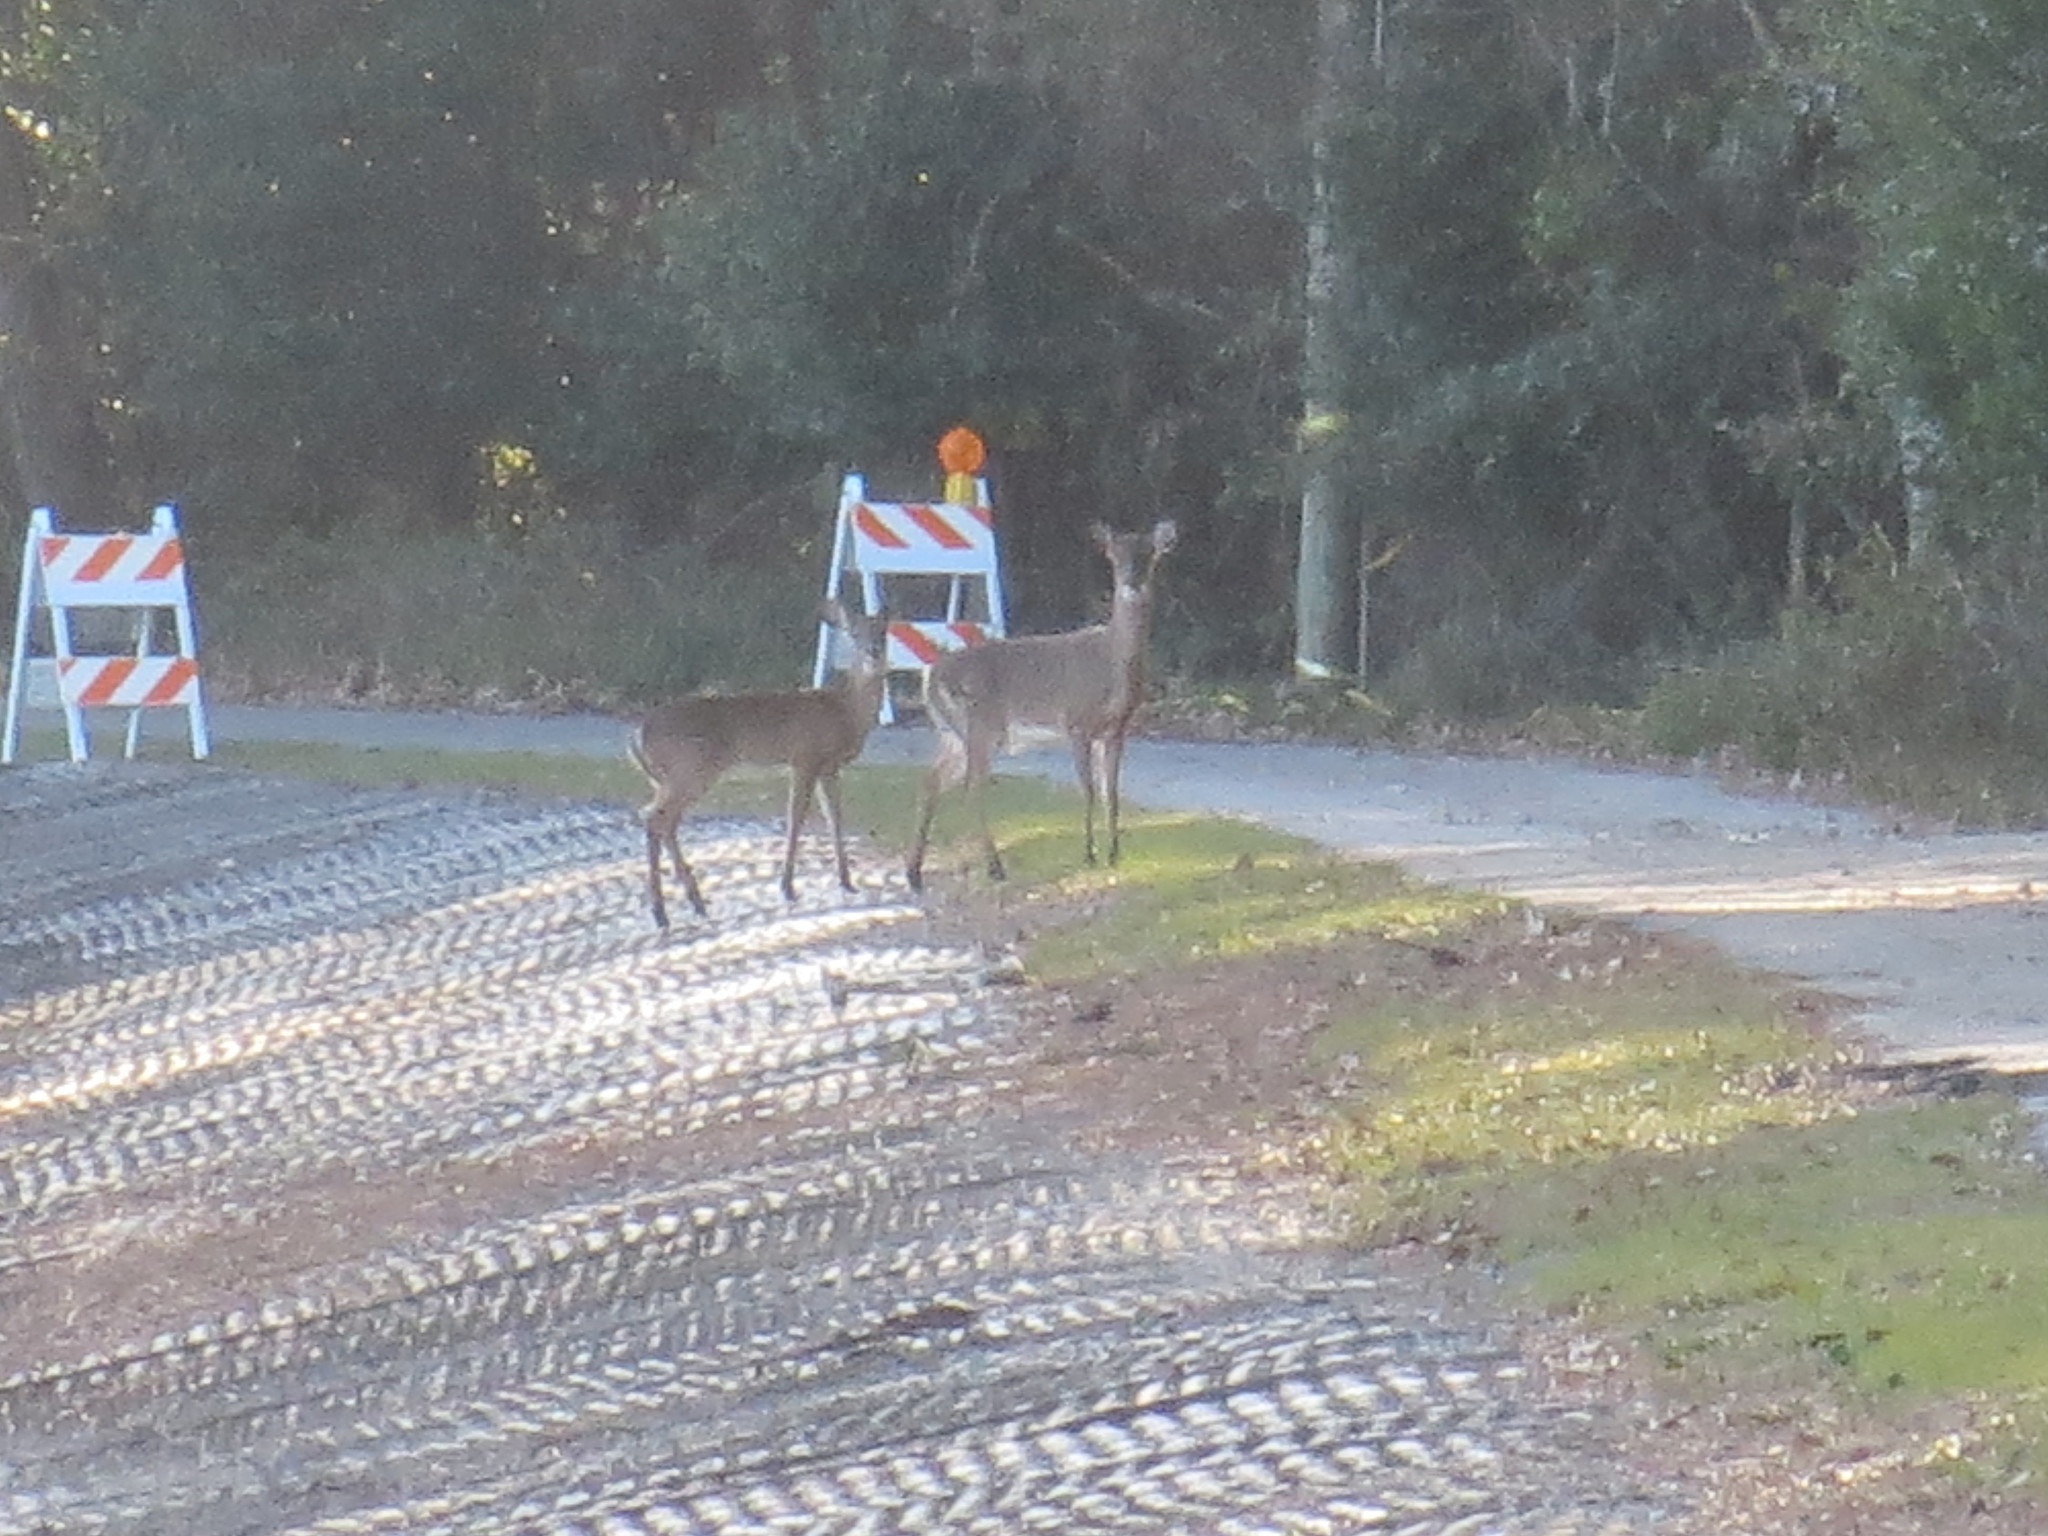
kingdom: Animalia
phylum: Chordata
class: Mammalia
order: Artiodactyla
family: Cervidae
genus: Odocoileus
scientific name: Odocoileus virginianus
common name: White-tailed deer
